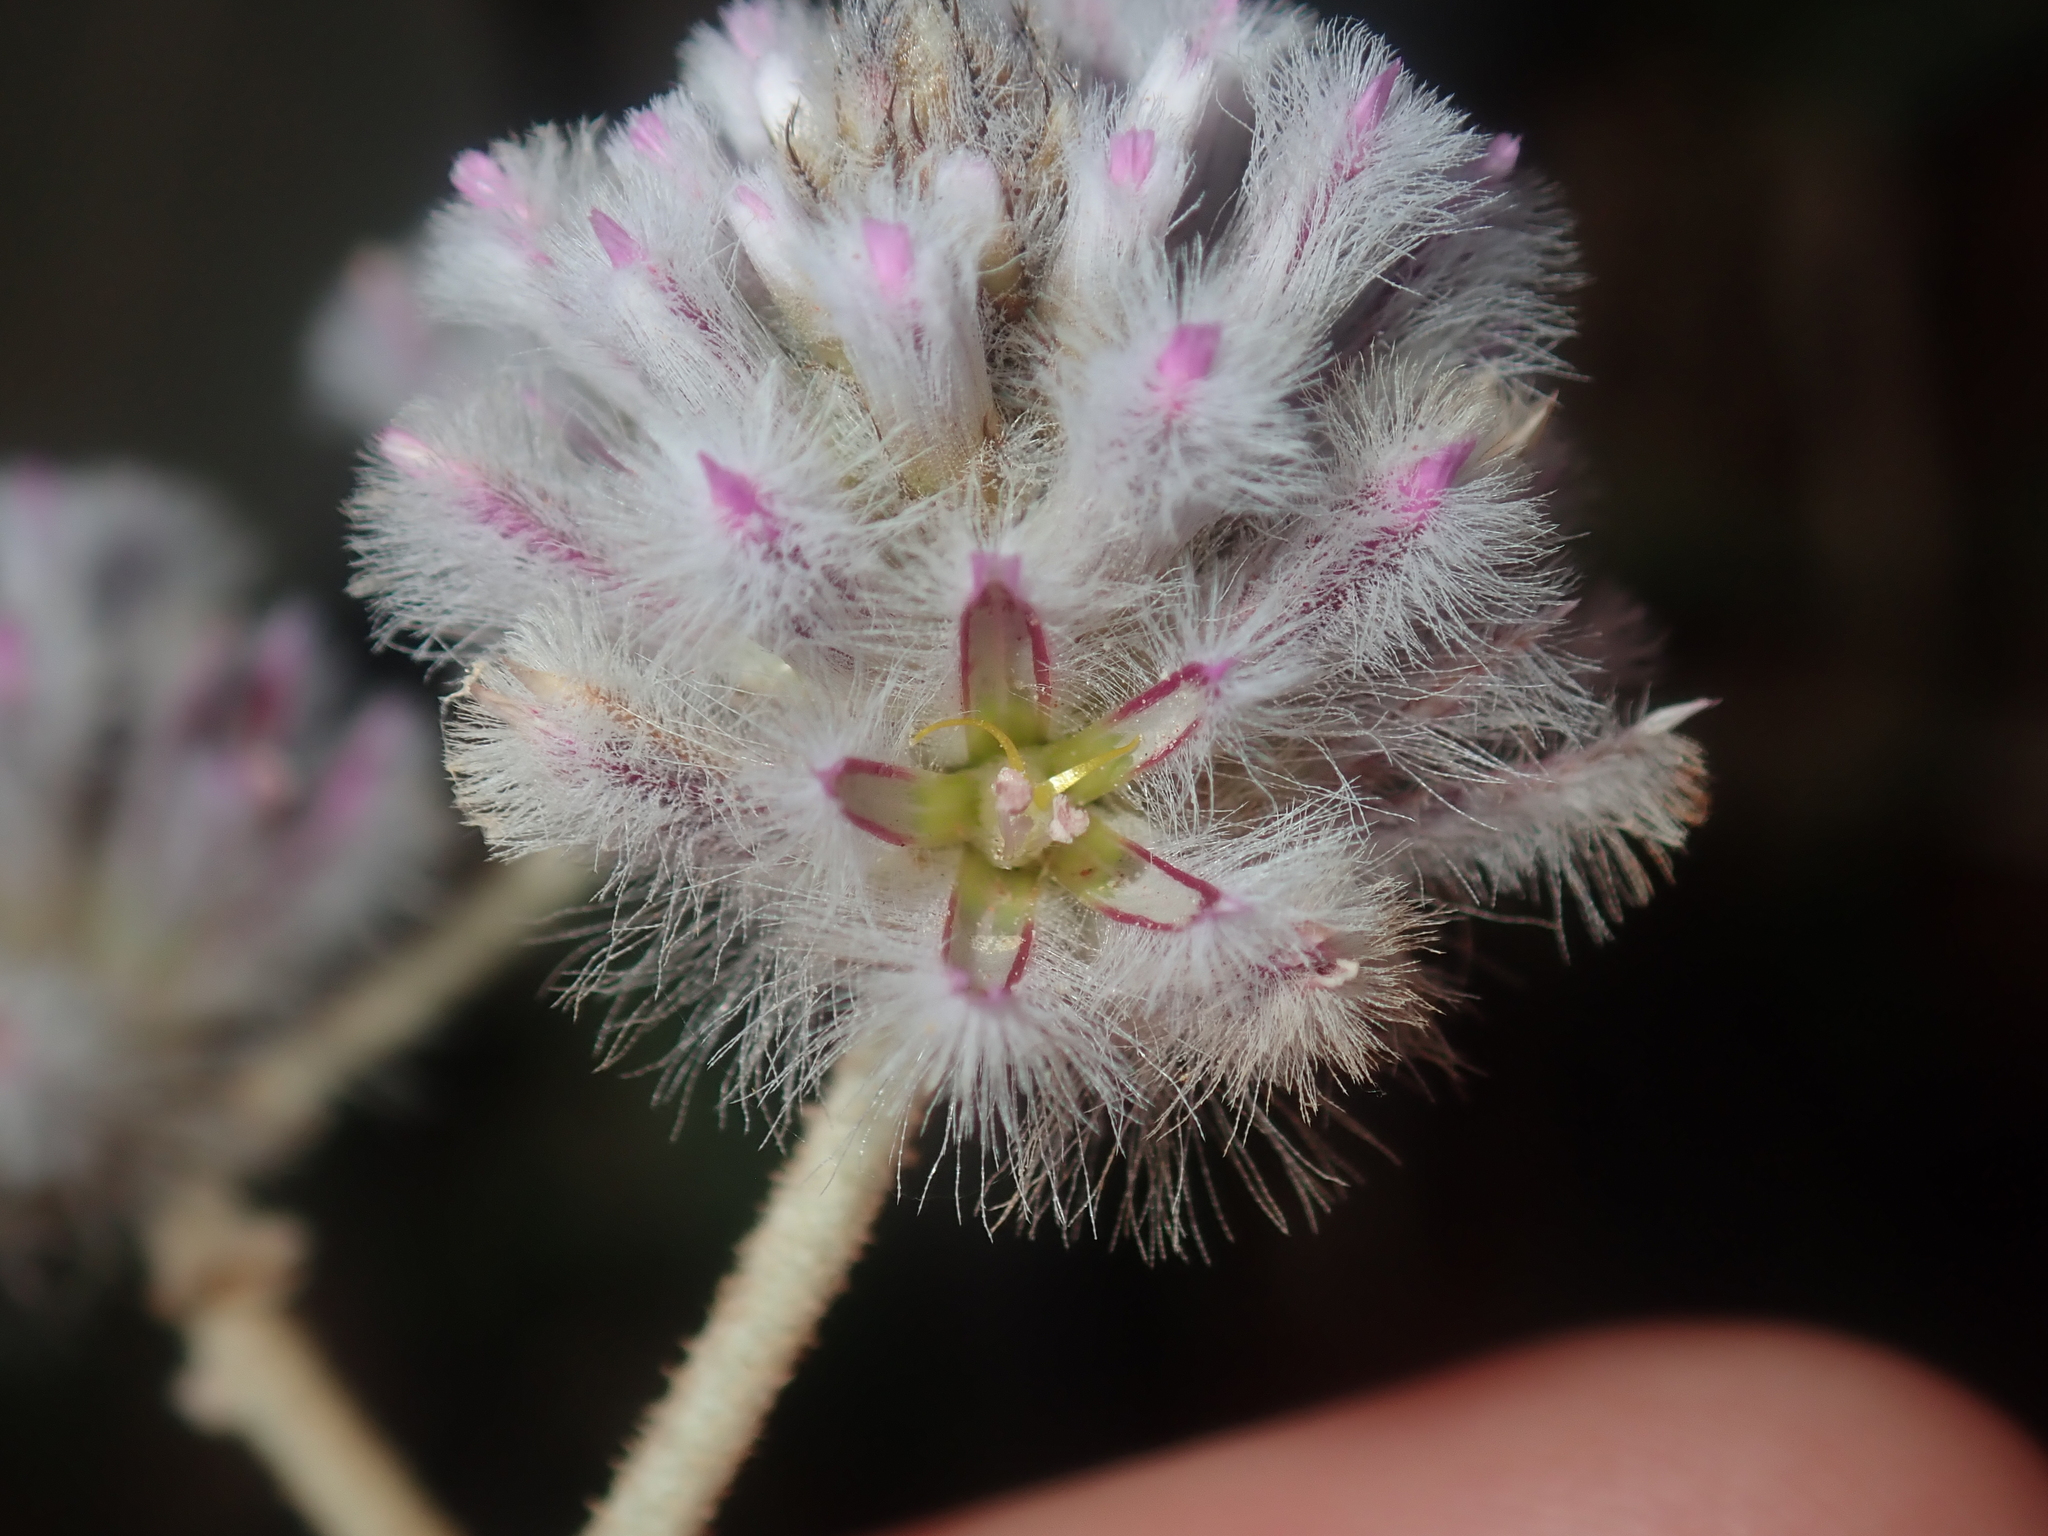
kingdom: Plantae
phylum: Tracheophyta
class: Magnoliopsida
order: Caryophyllales
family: Amaranthaceae
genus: Ptilotus
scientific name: Ptilotus obovatus
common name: Cottonbush
